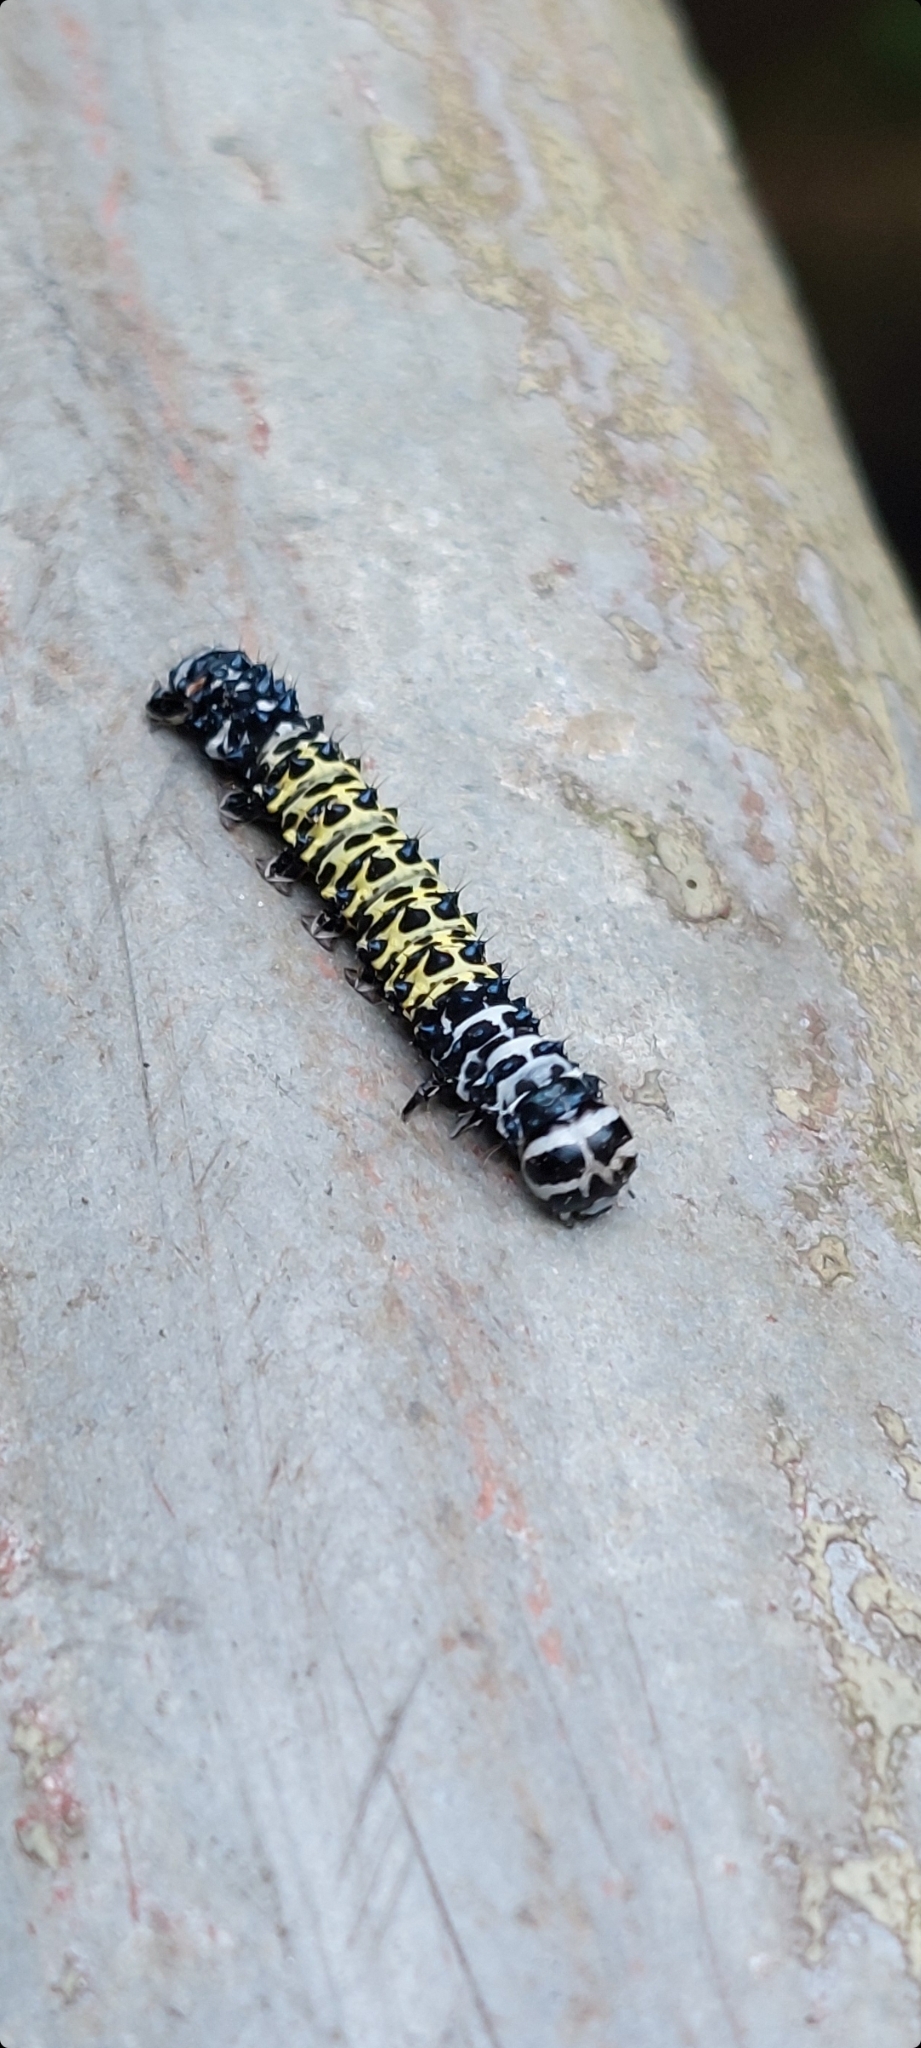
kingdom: Animalia
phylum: Arthropoda
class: Insecta
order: Lepidoptera
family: Noctuidae
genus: Tycracona
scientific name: Tycracona obliqua
